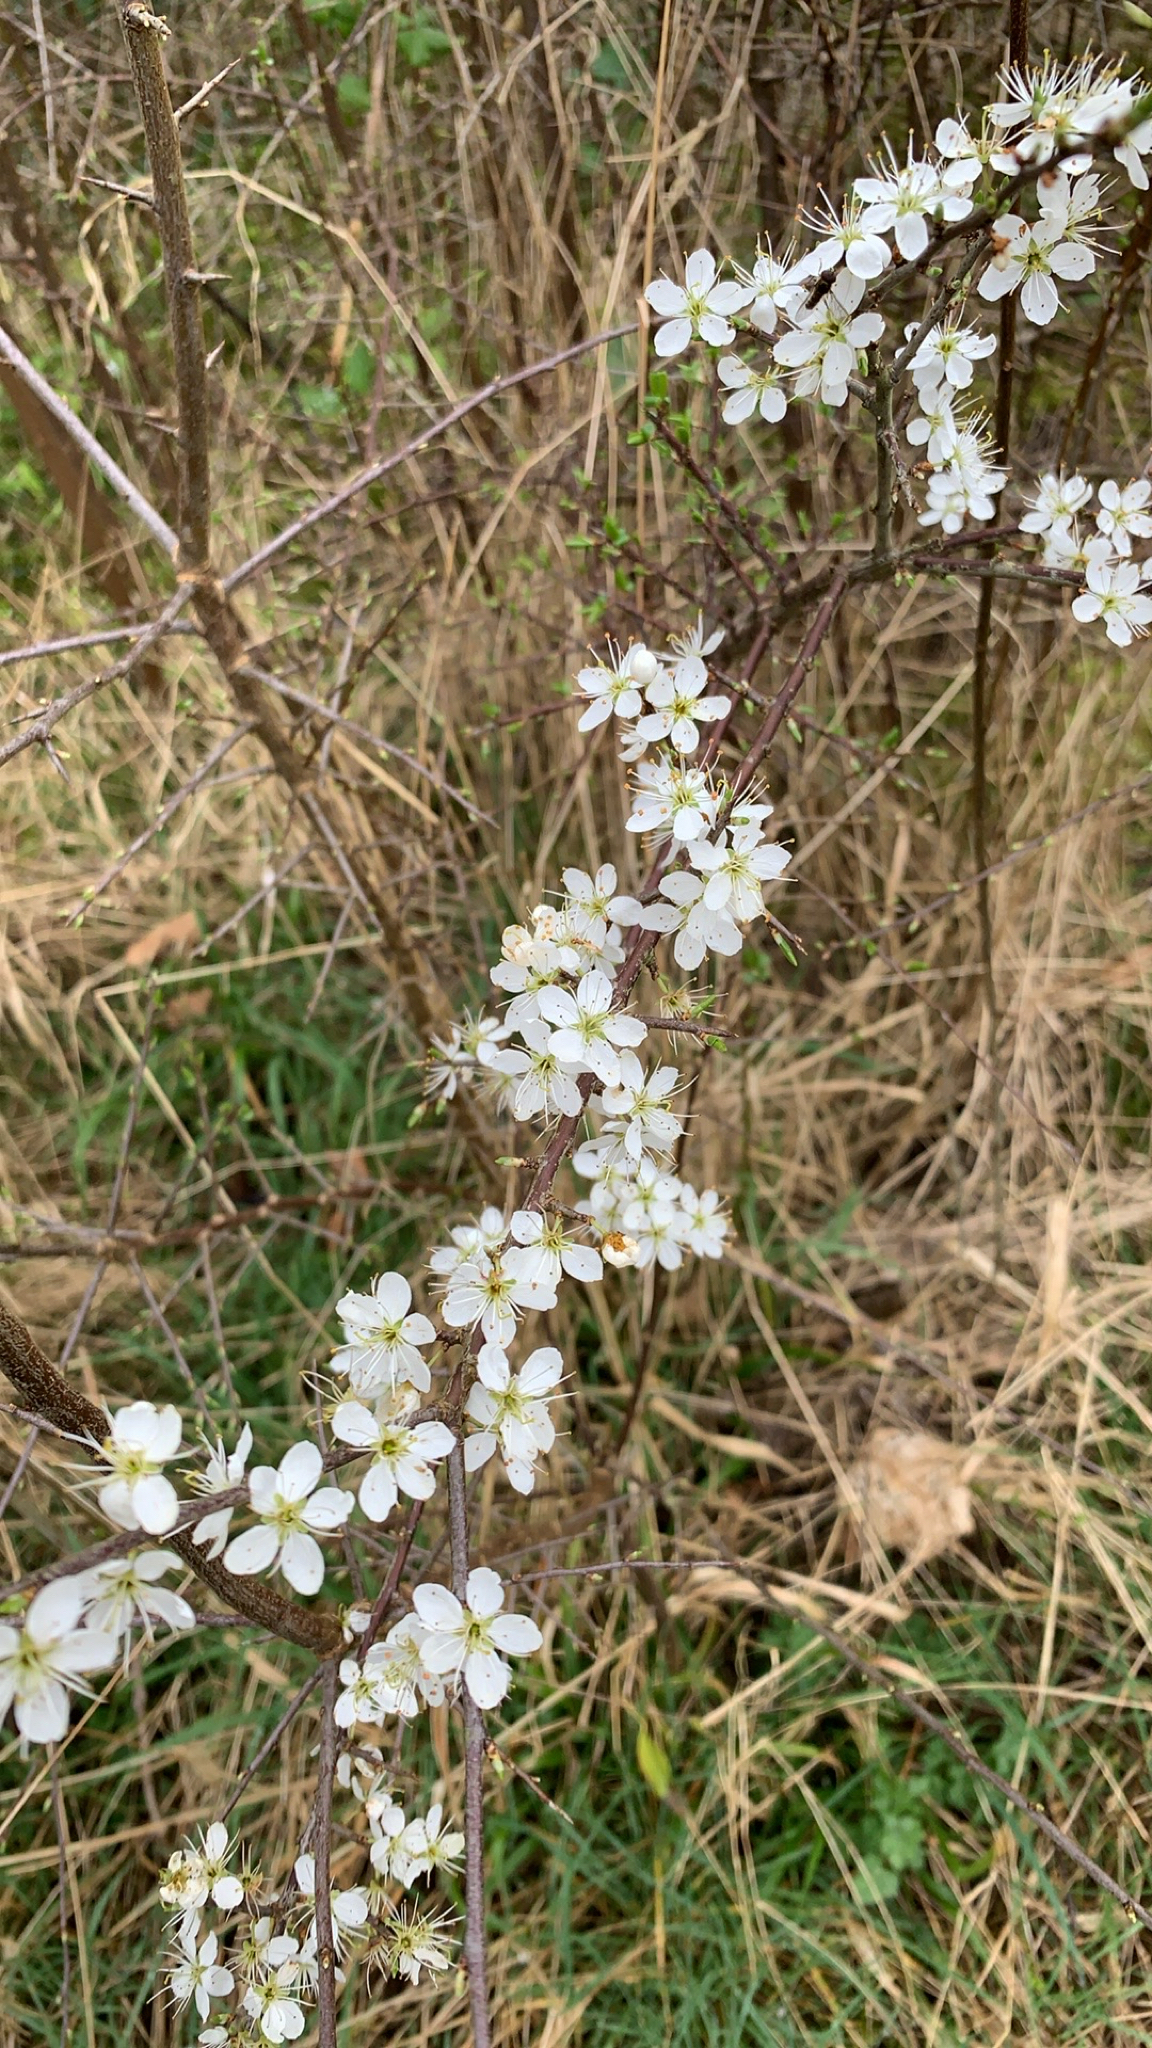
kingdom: Plantae
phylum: Tracheophyta
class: Magnoliopsida
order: Rosales
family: Rosaceae
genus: Prunus
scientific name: Prunus spinosa
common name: Blackthorn
